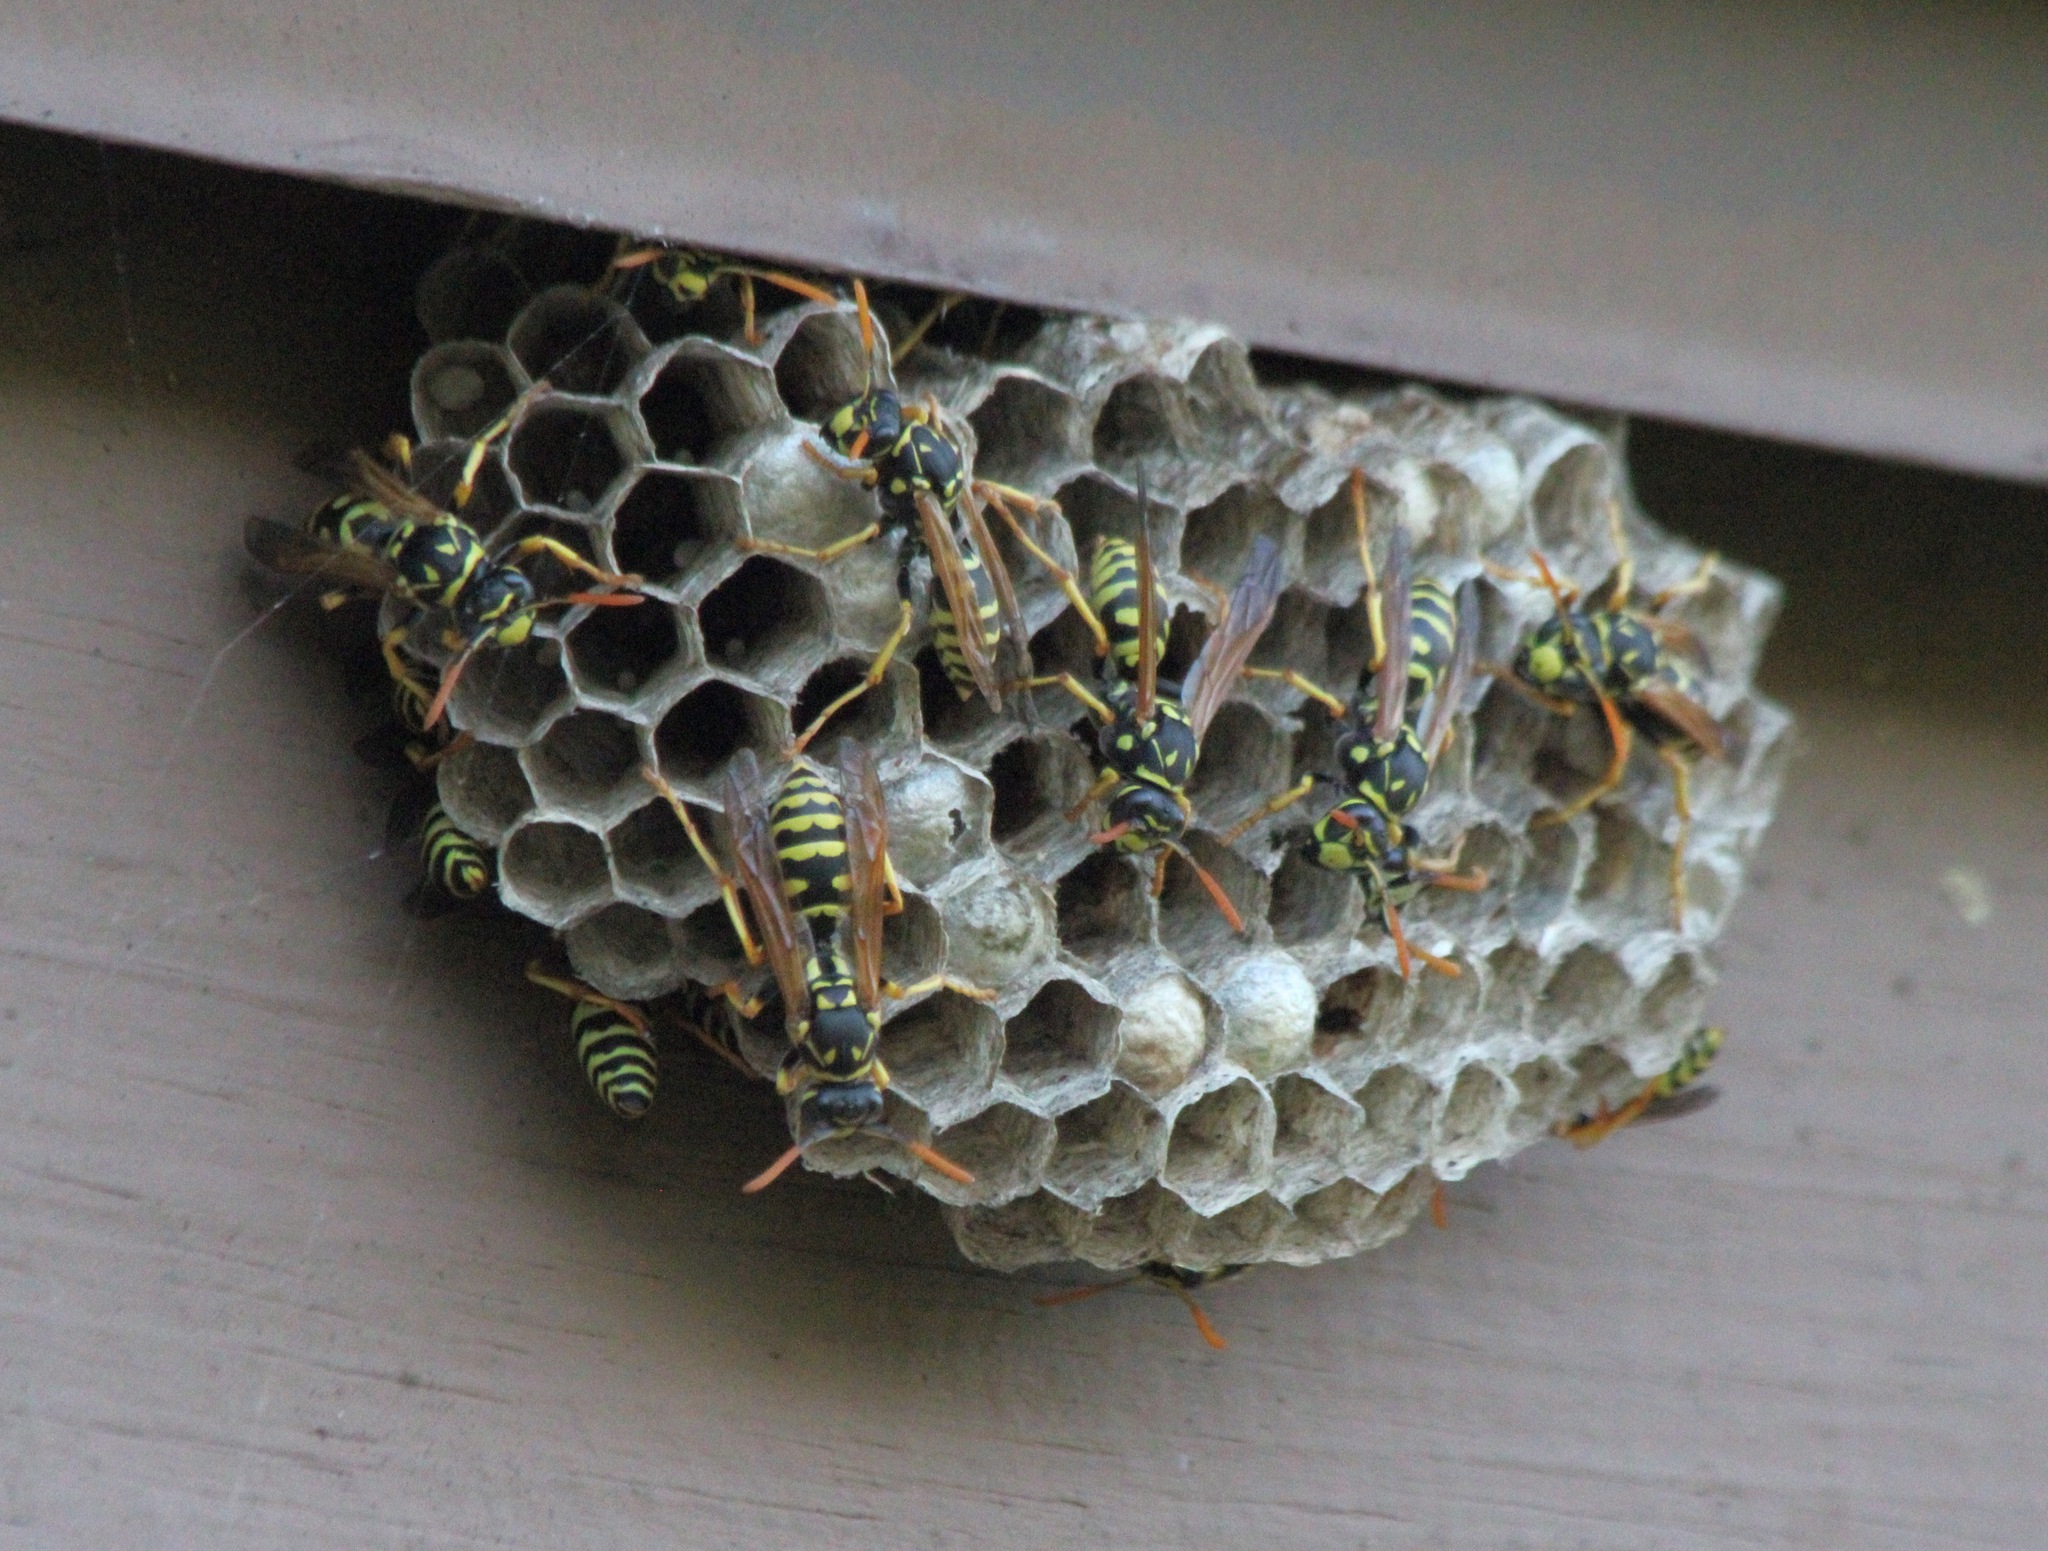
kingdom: Animalia
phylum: Arthropoda
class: Insecta
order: Hymenoptera
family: Eumenidae
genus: Polistes
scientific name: Polistes dominula
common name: Paper wasp
